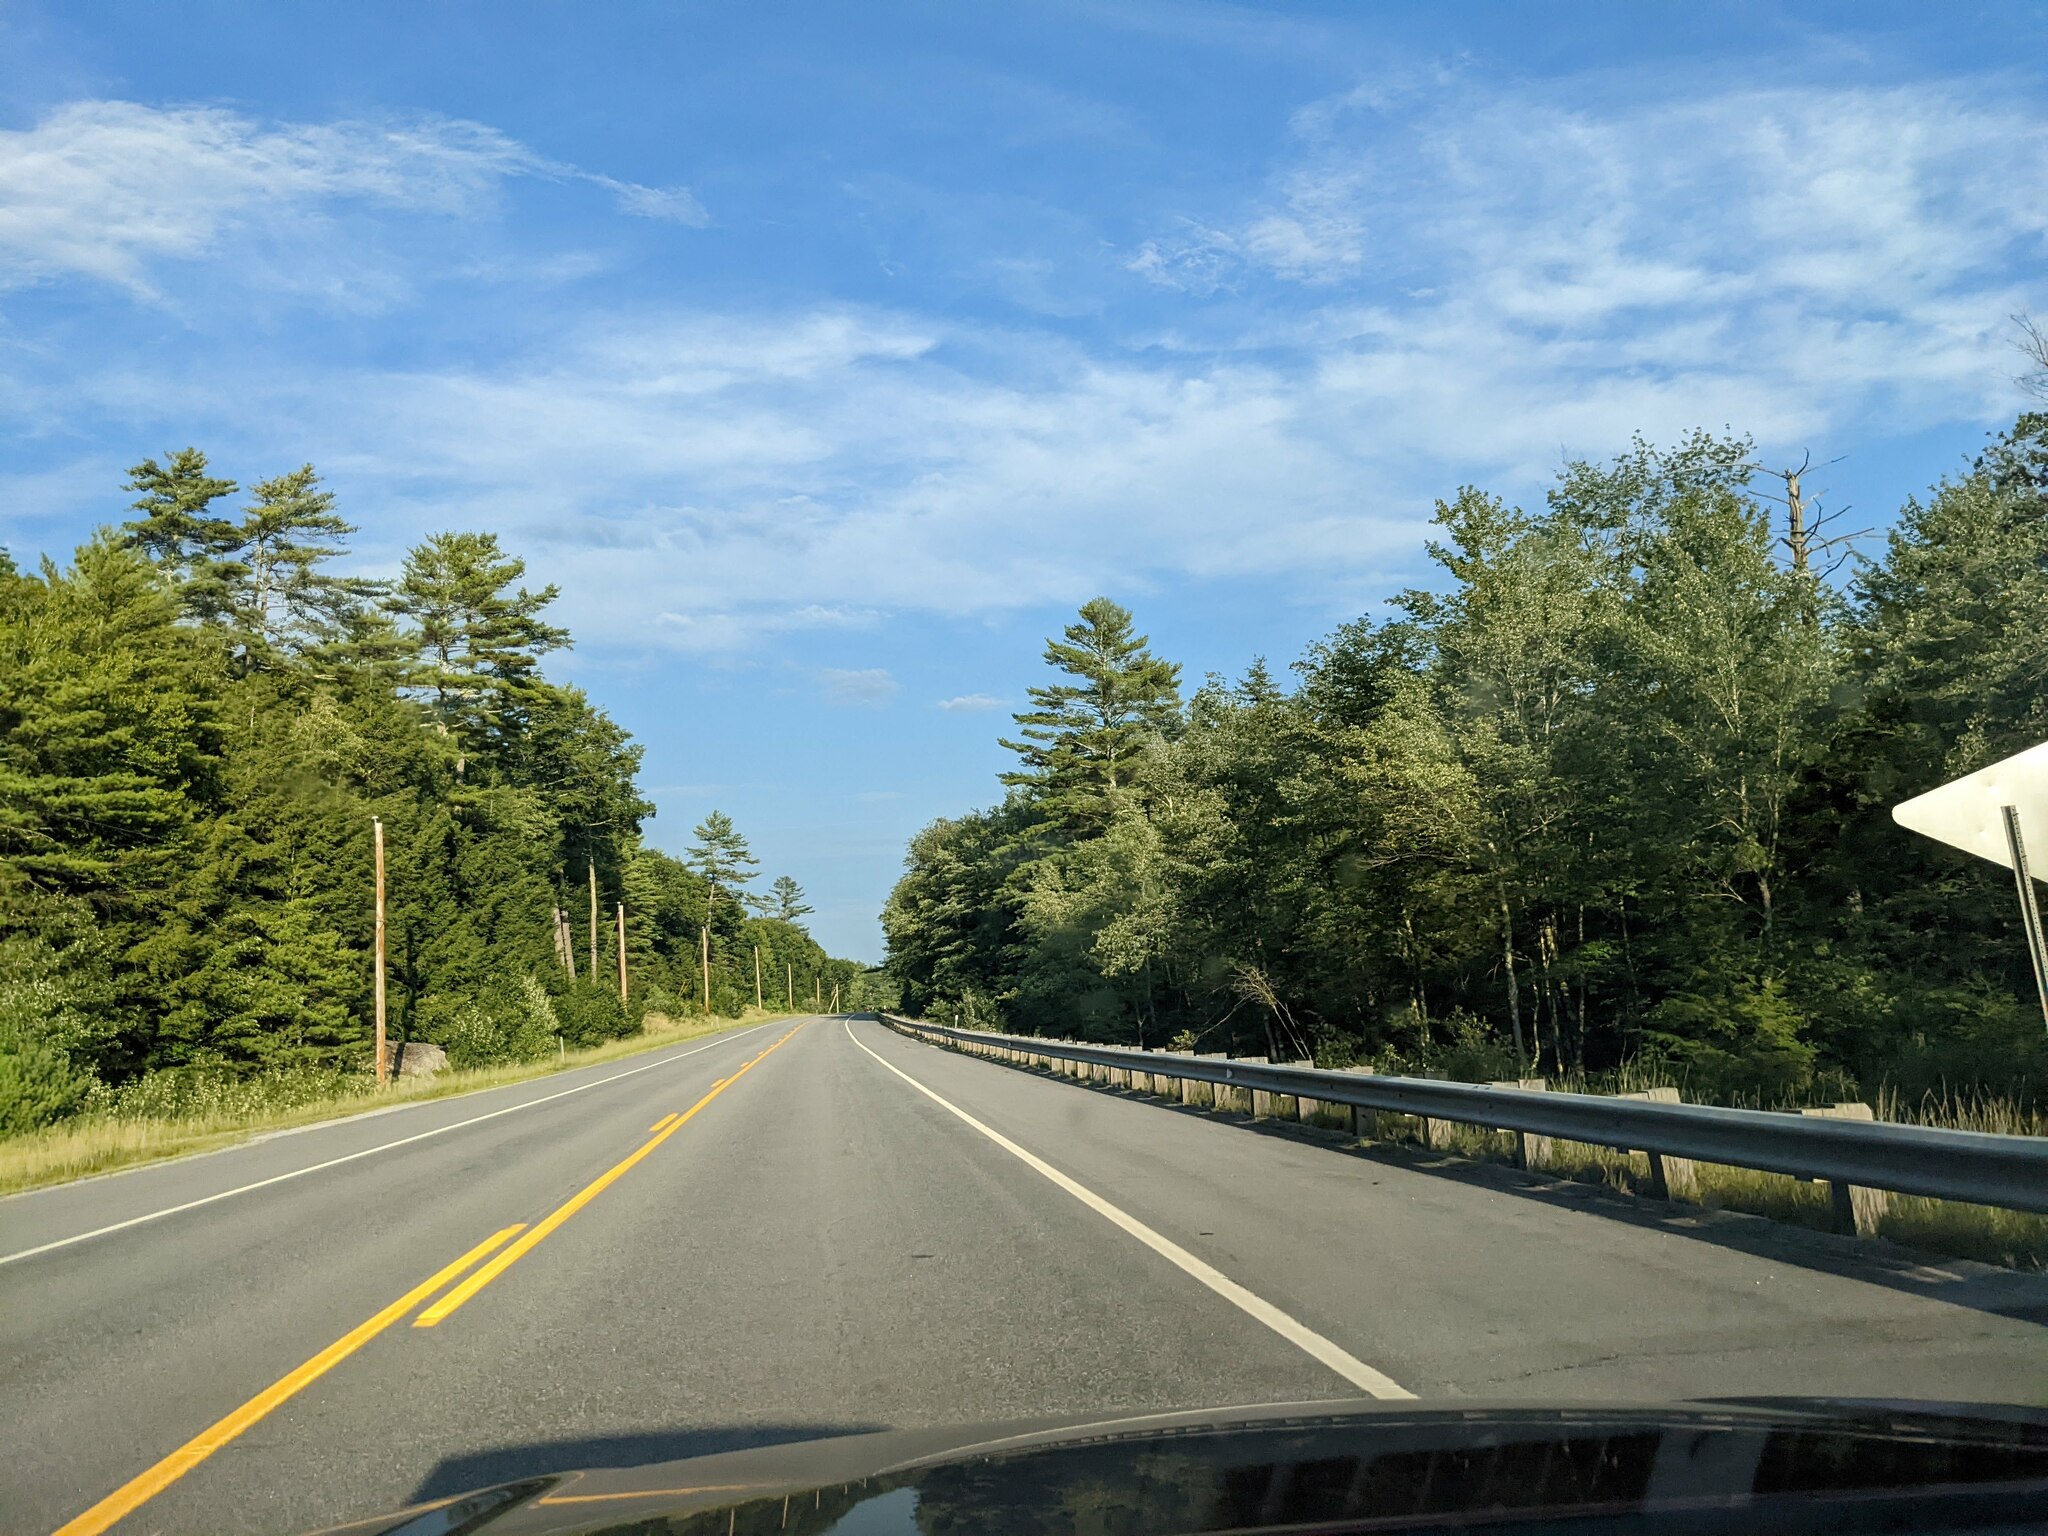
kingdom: Plantae
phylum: Tracheophyta
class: Pinopsida
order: Pinales
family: Pinaceae
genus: Pinus
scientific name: Pinus strobus
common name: Weymouth pine
